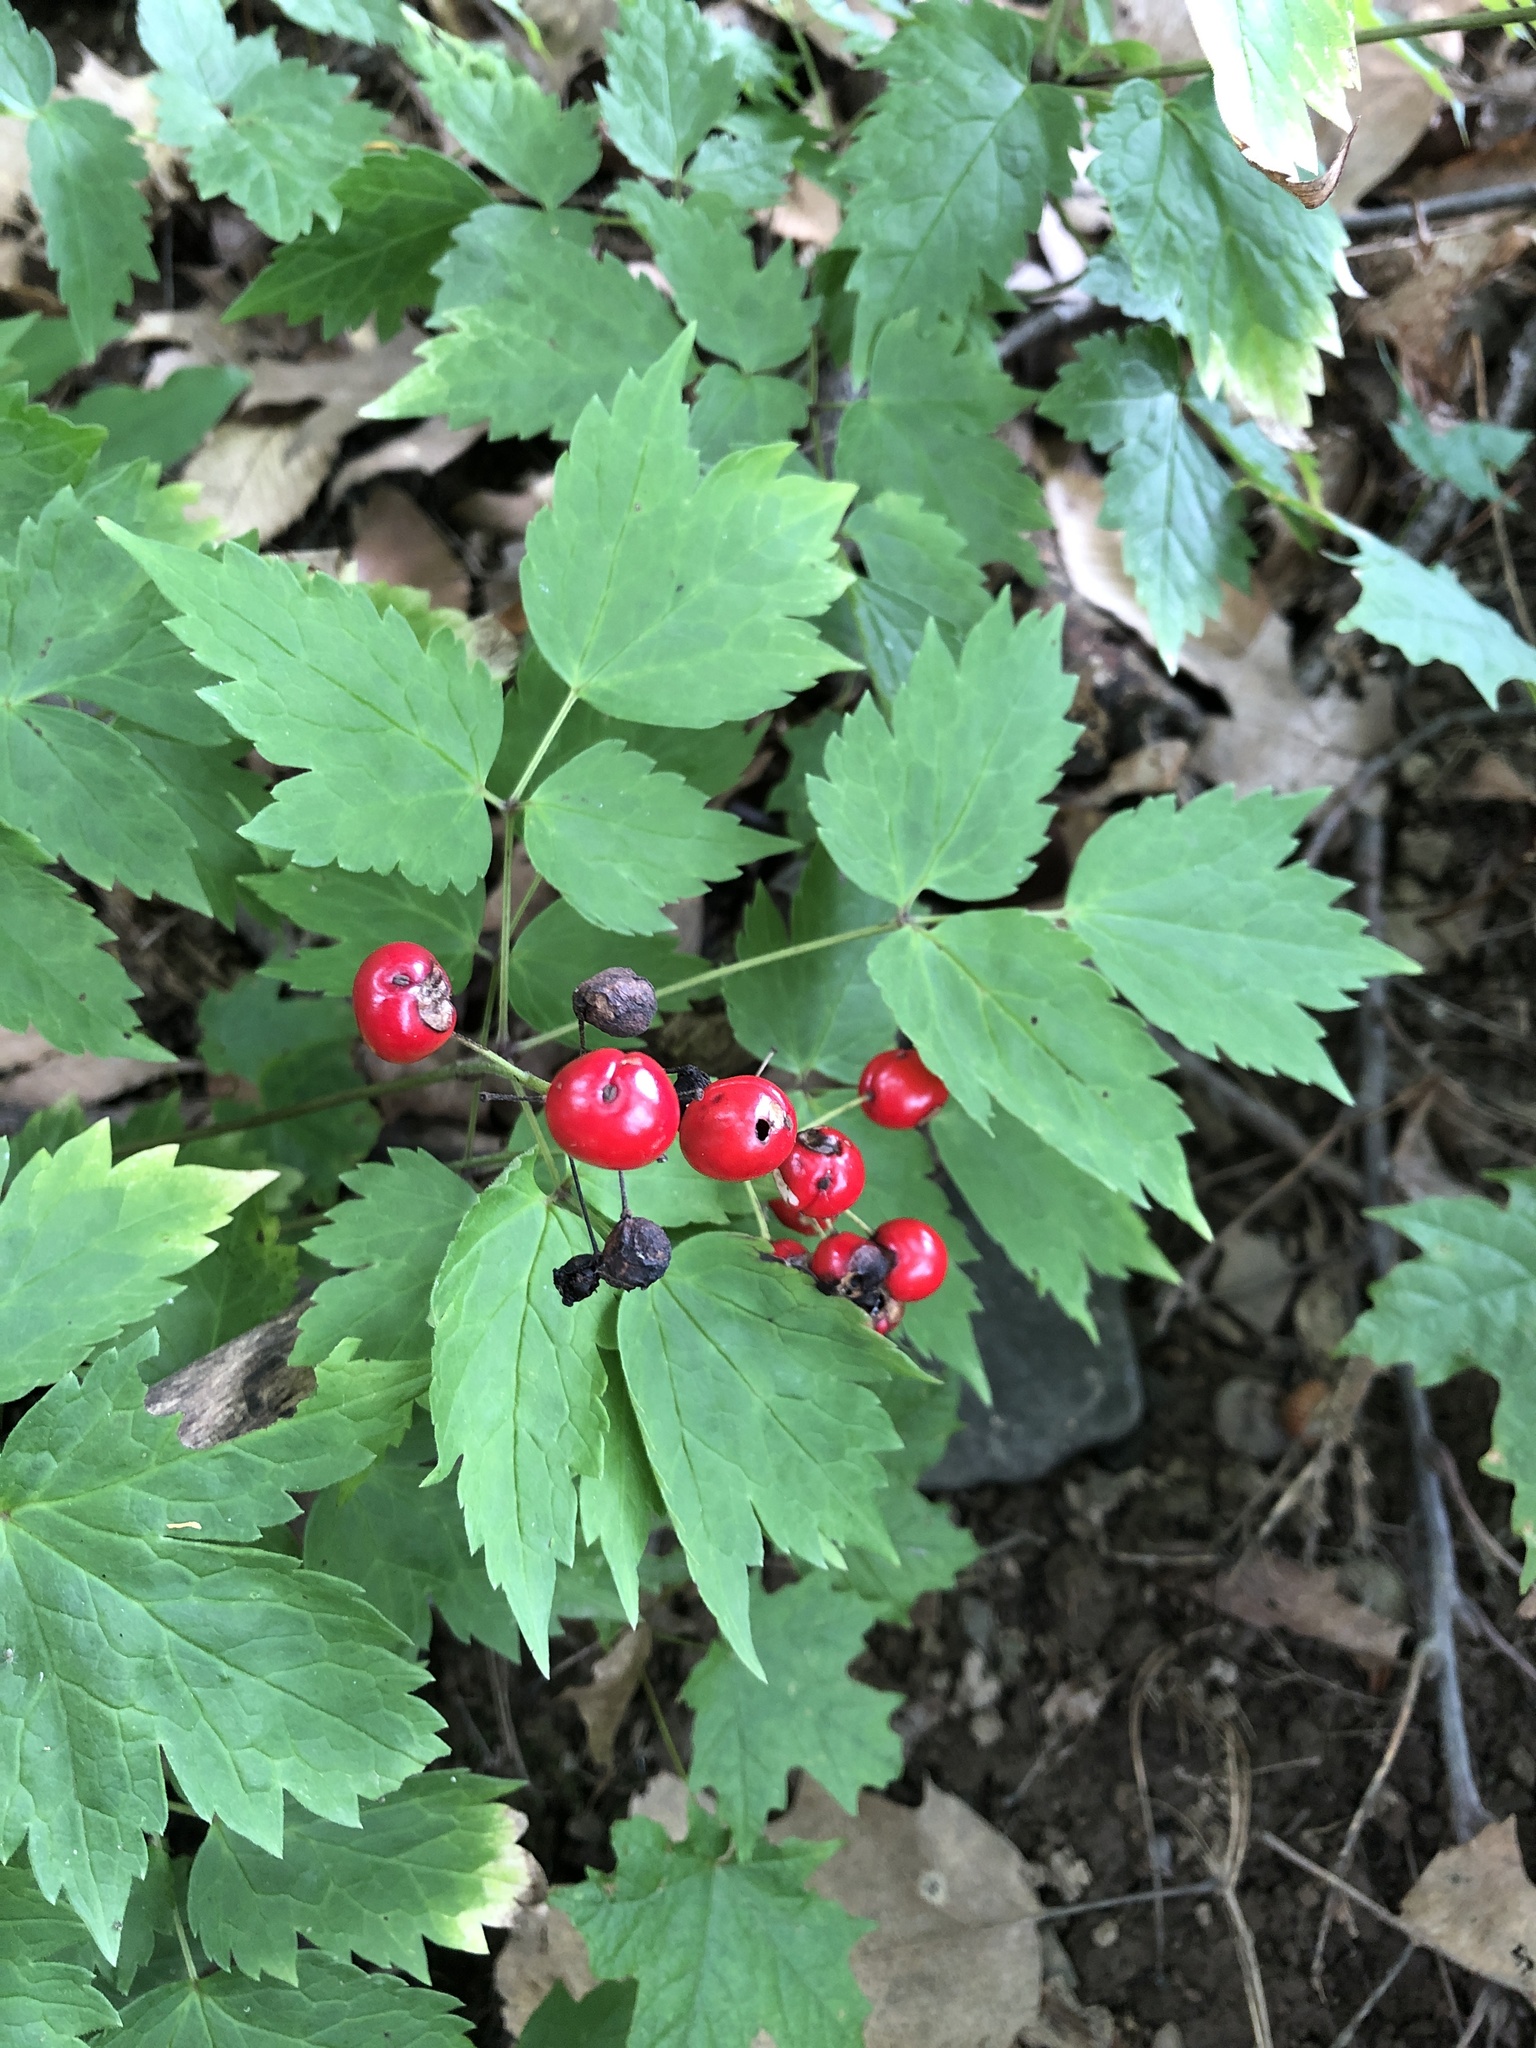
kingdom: Plantae
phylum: Tracheophyta
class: Magnoliopsida
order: Ranunculales
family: Ranunculaceae
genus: Actaea
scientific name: Actaea rubra
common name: Red baneberry
